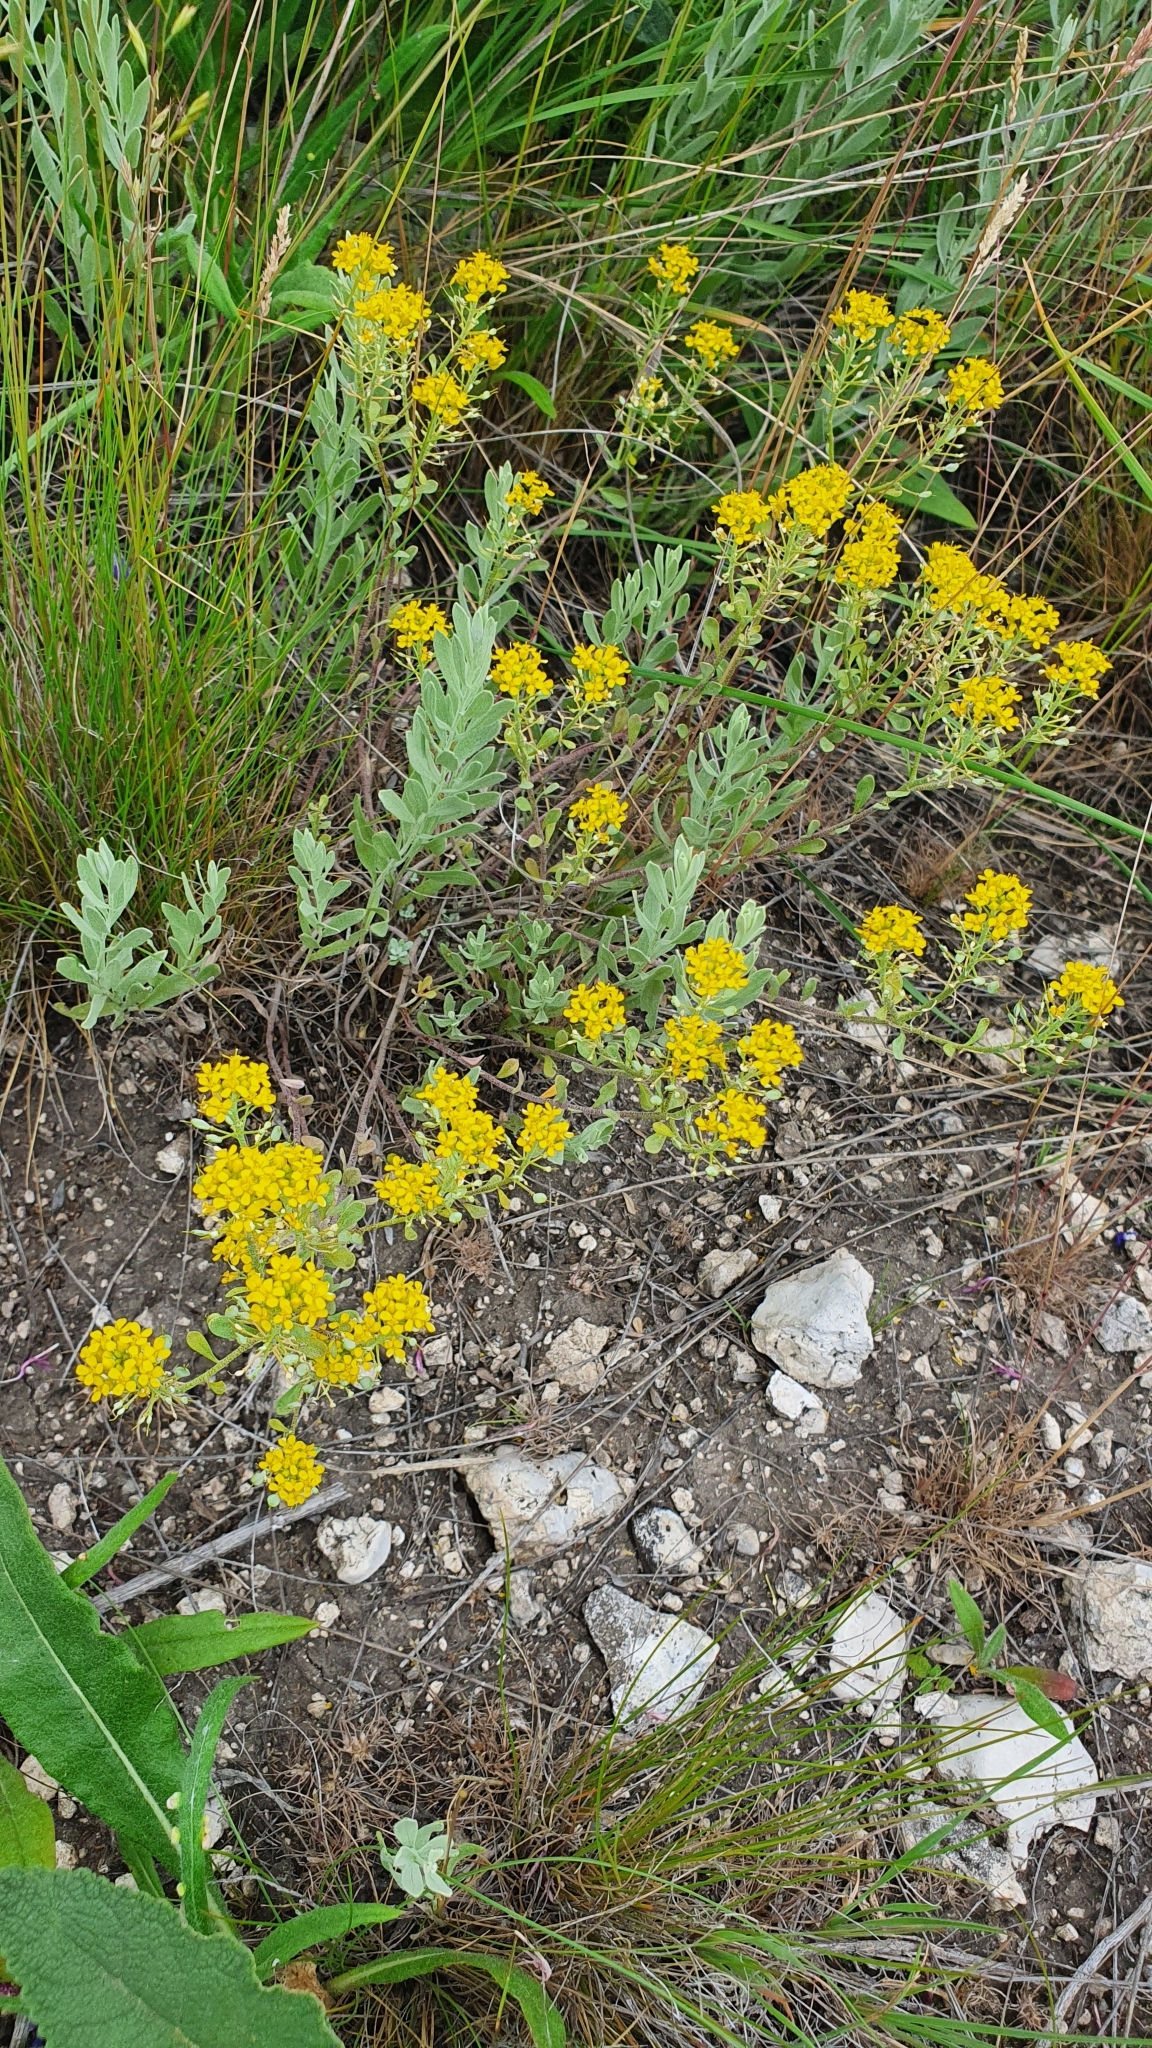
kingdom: Plantae
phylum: Tracheophyta
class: Magnoliopsida
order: Brassicales
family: Brassicaceae
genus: Odontarrhena
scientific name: Odontarrhena tortuosa
